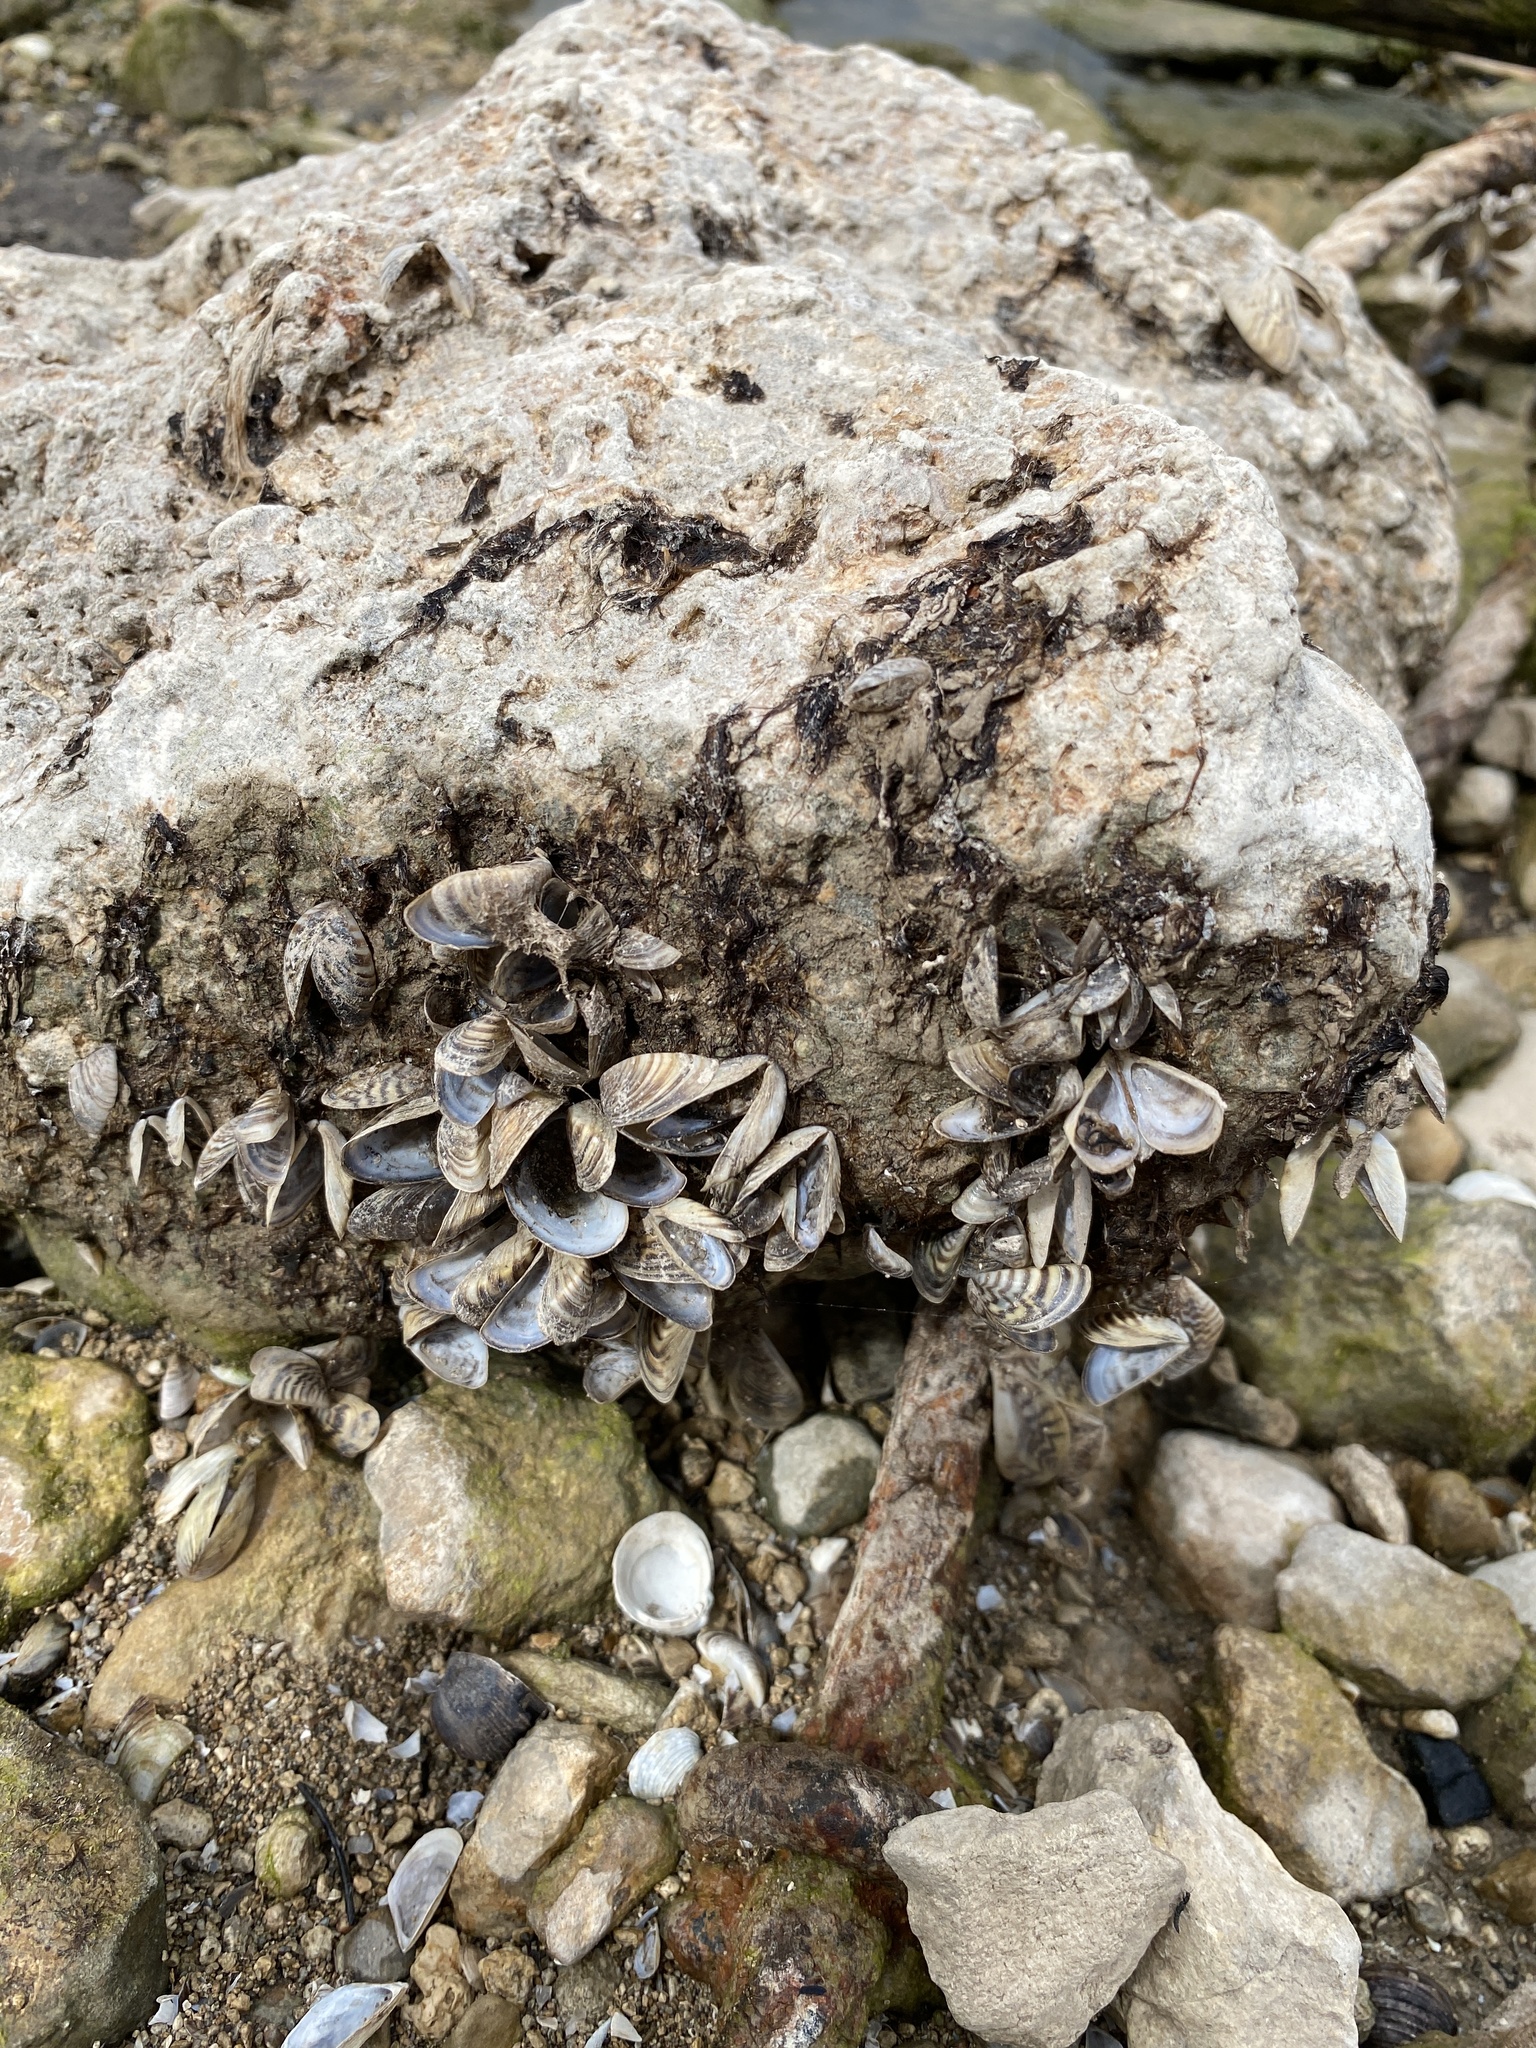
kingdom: Animalia
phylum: Mollusca
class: Bivalvia
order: Myida
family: Dreissenidae
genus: Dreissena
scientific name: Dreissena polymorpha
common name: Zebra mussel
